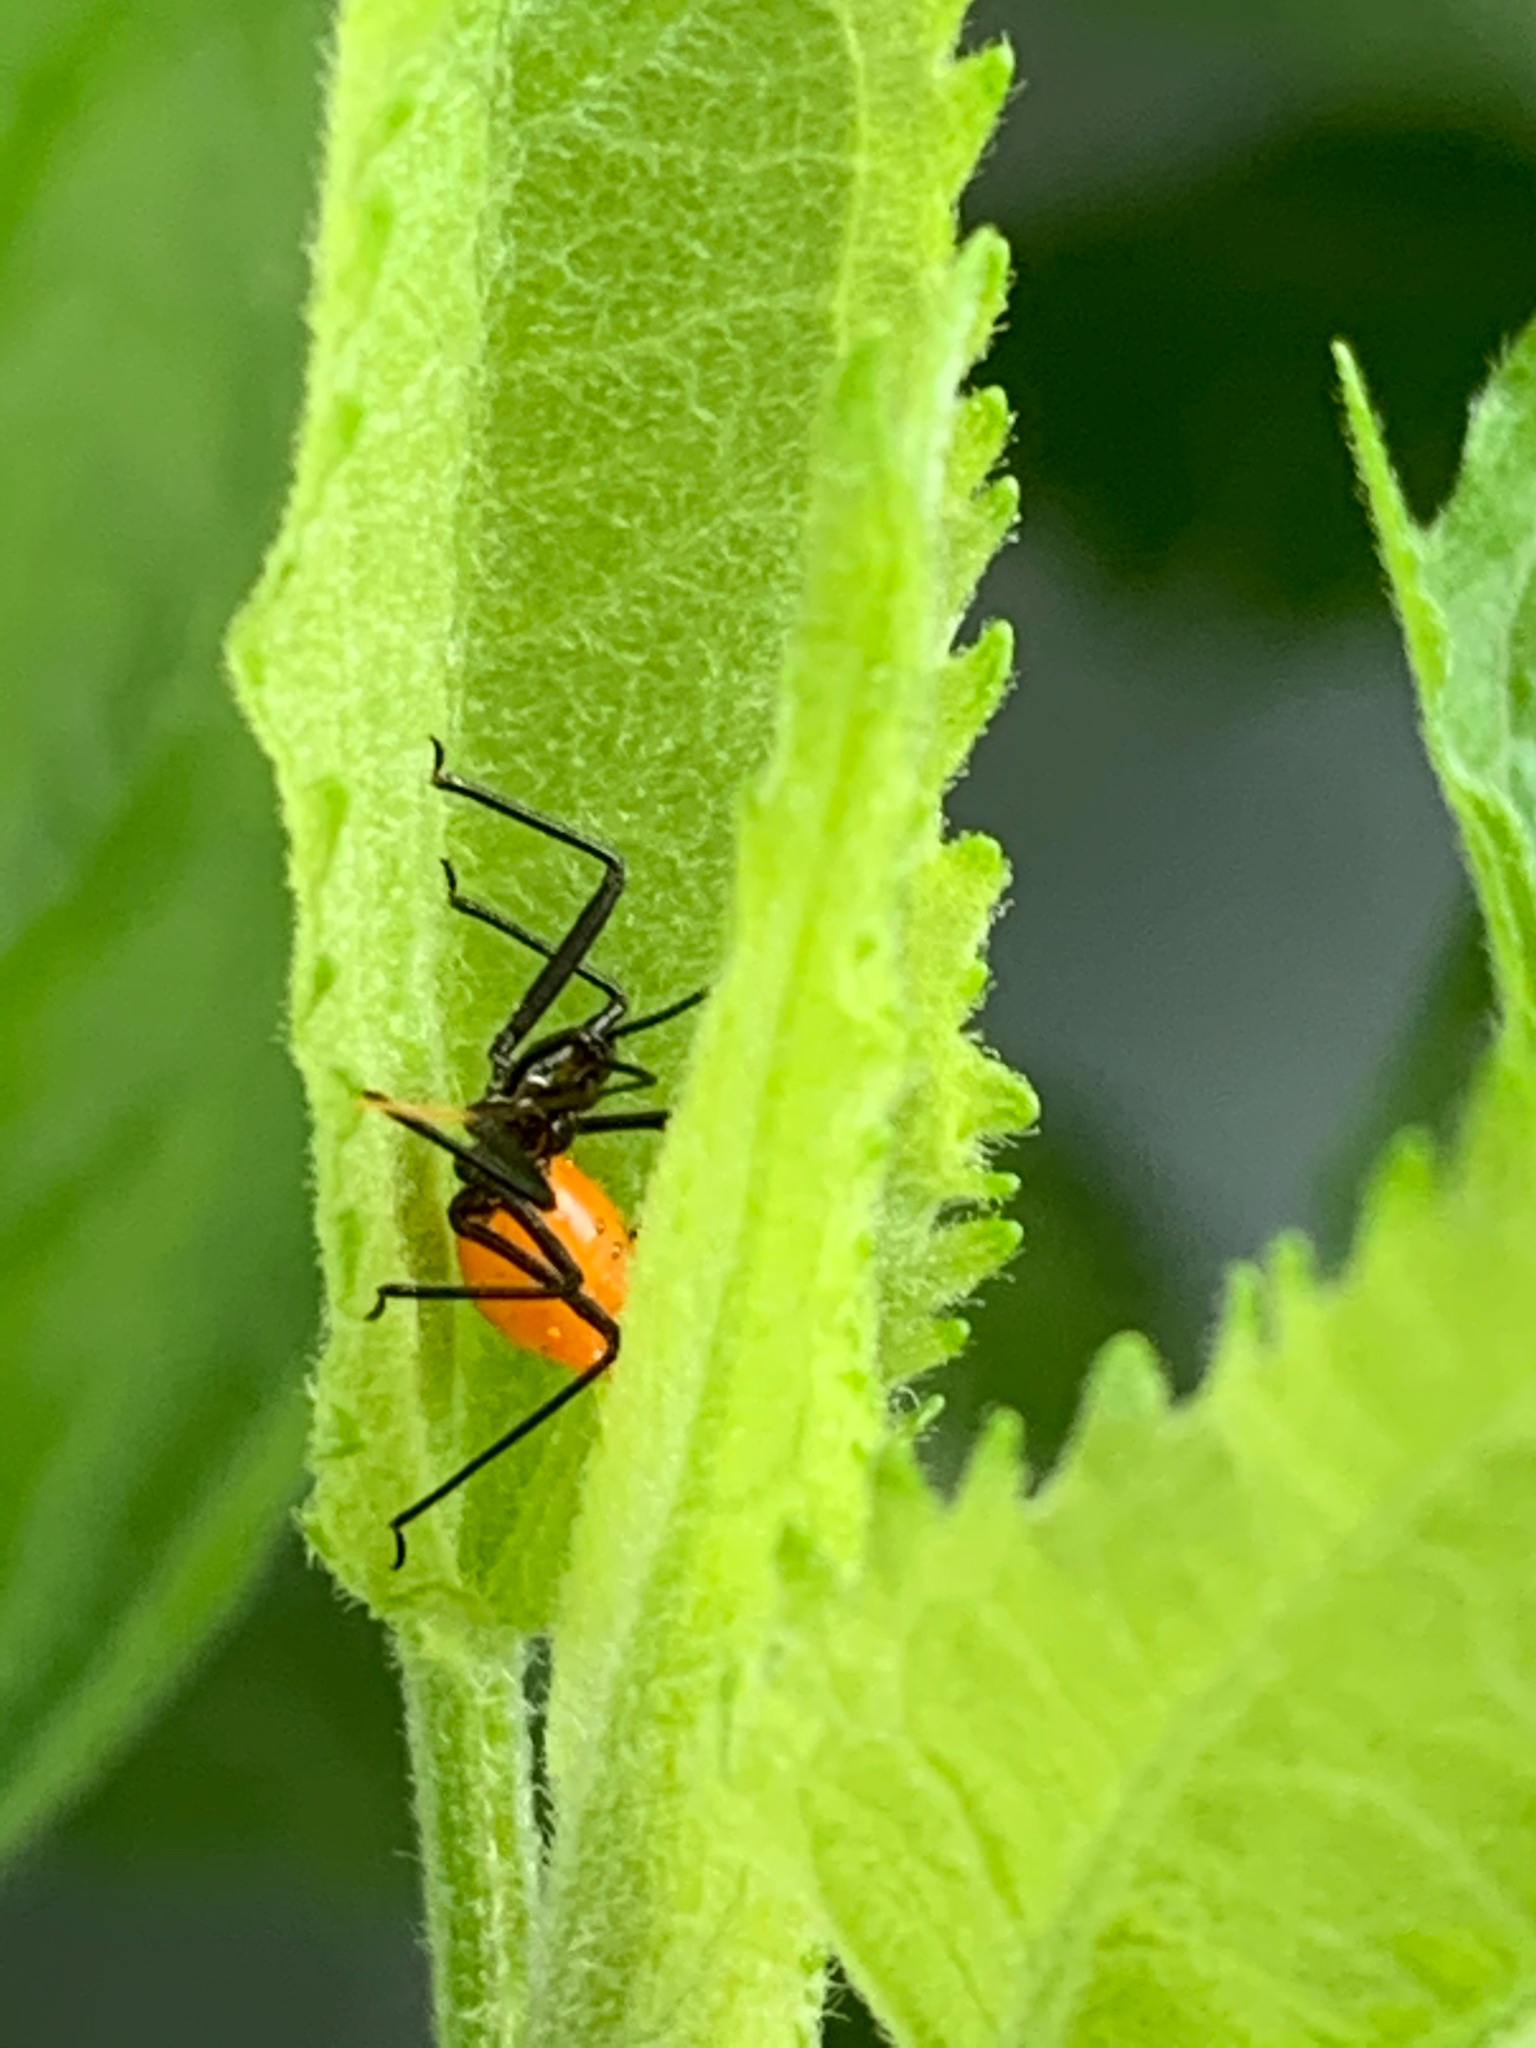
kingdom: Animalia
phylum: Arthropoda
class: Insecta
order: Hemiptera
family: Reduviidae
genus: Arilus
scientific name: Arilus cristatus
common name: North american wheel bug
